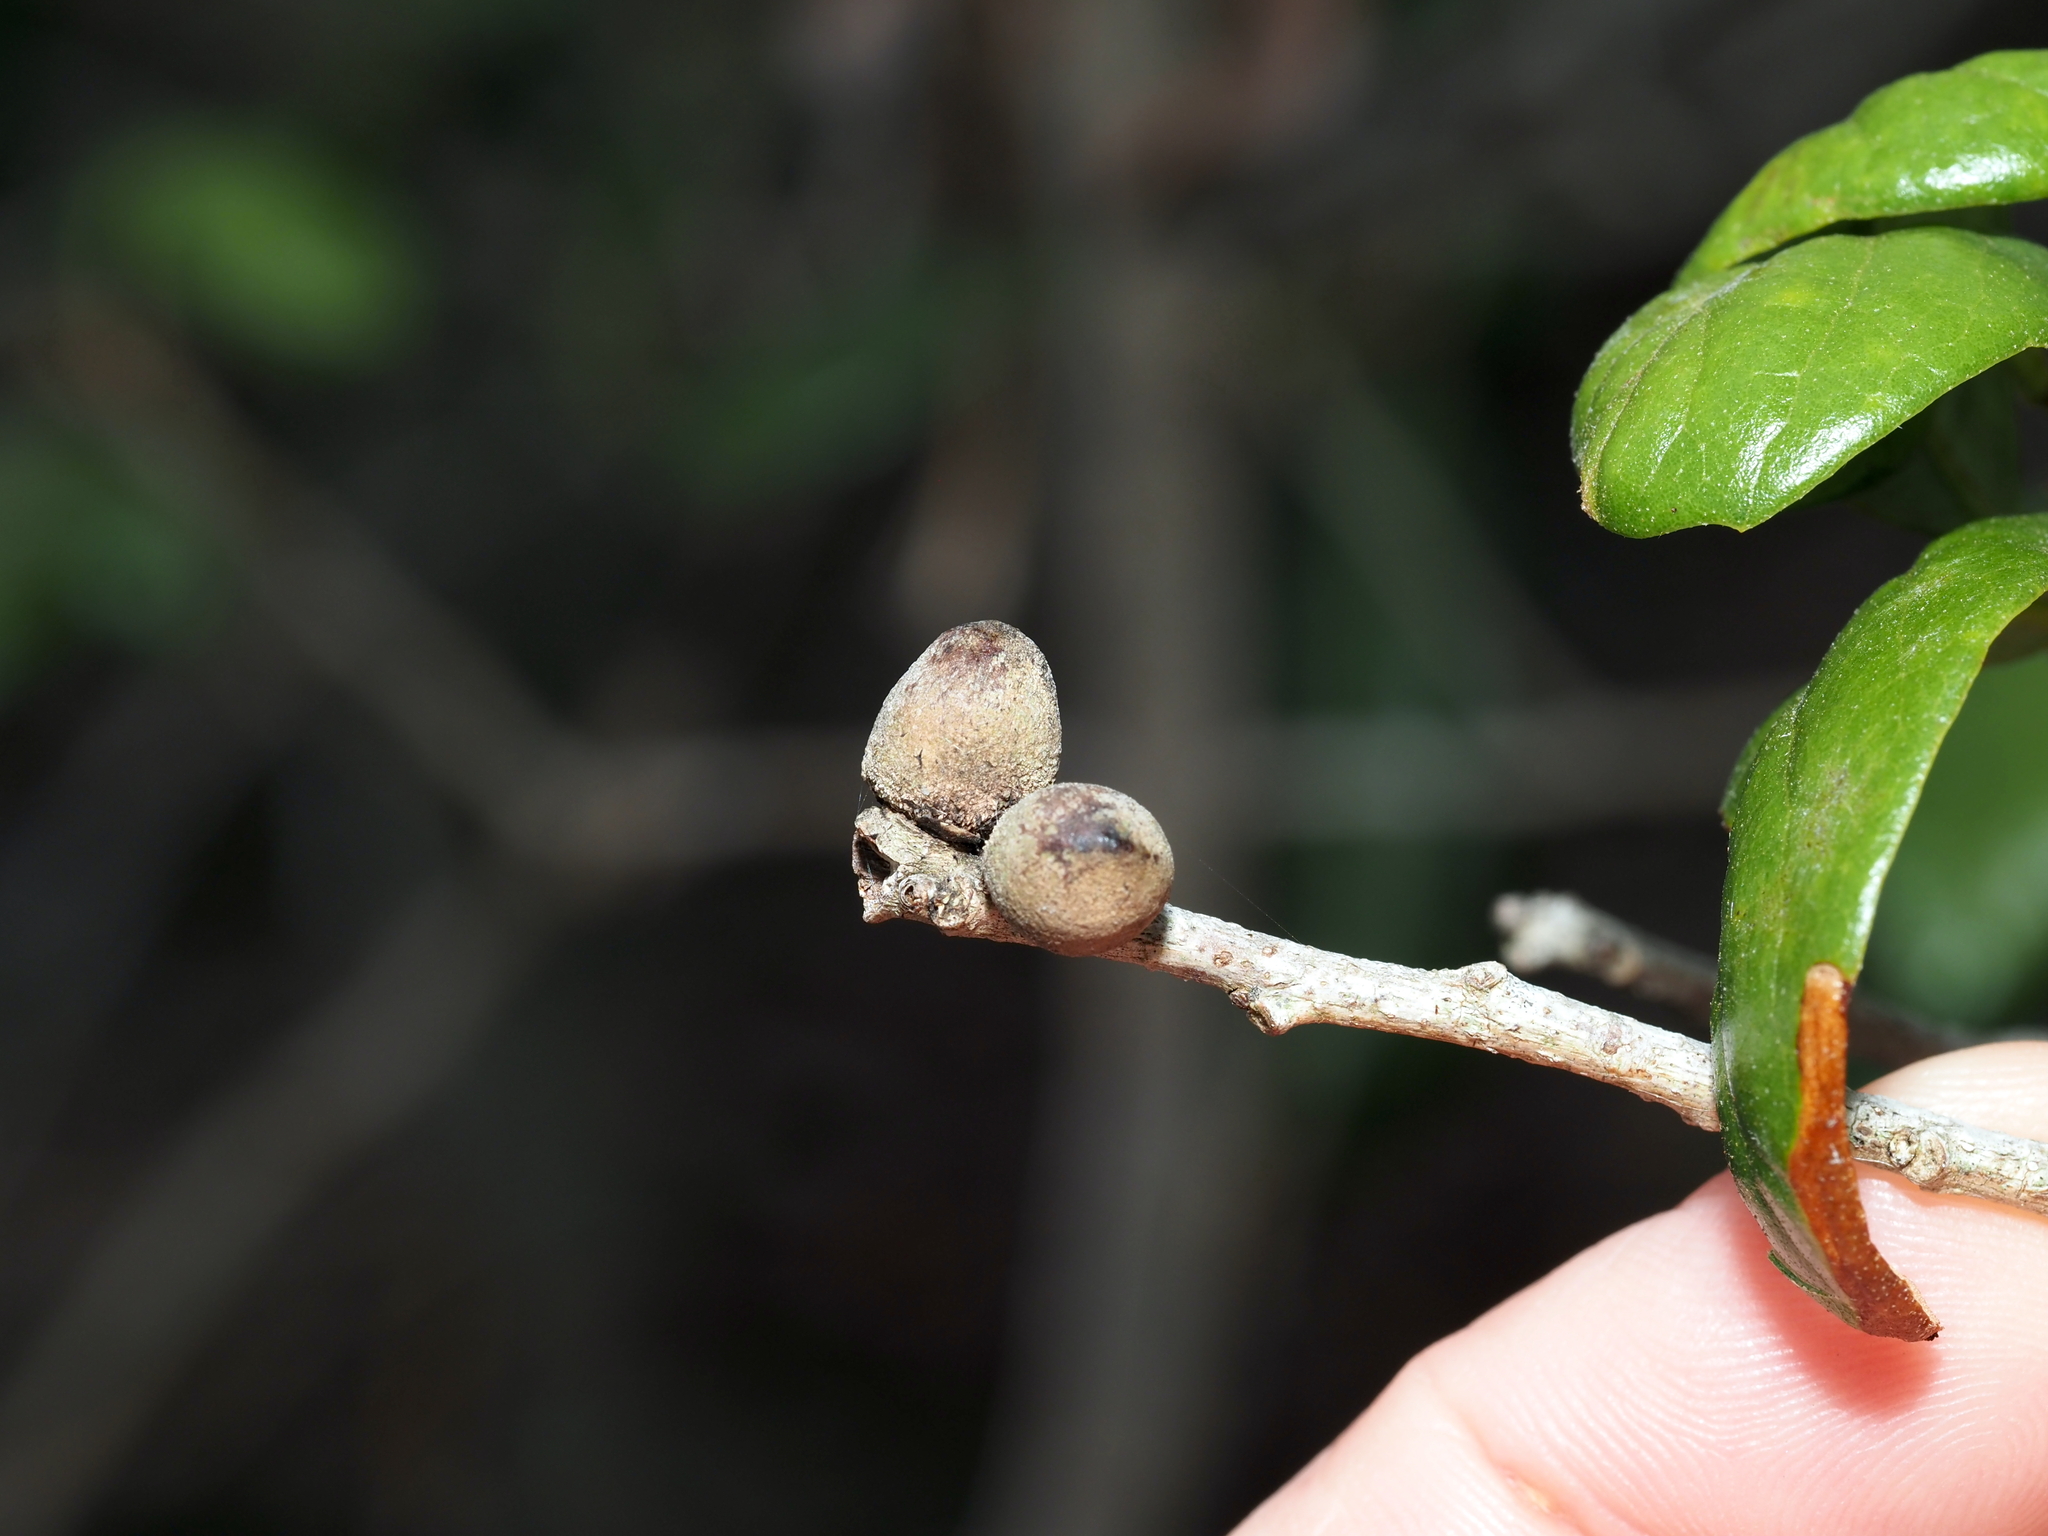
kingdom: Animalia
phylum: Arthropoda
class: Insecta
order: Hymenoptera
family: Cynipidae
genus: Disholcaspis
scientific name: Disholcaspis
